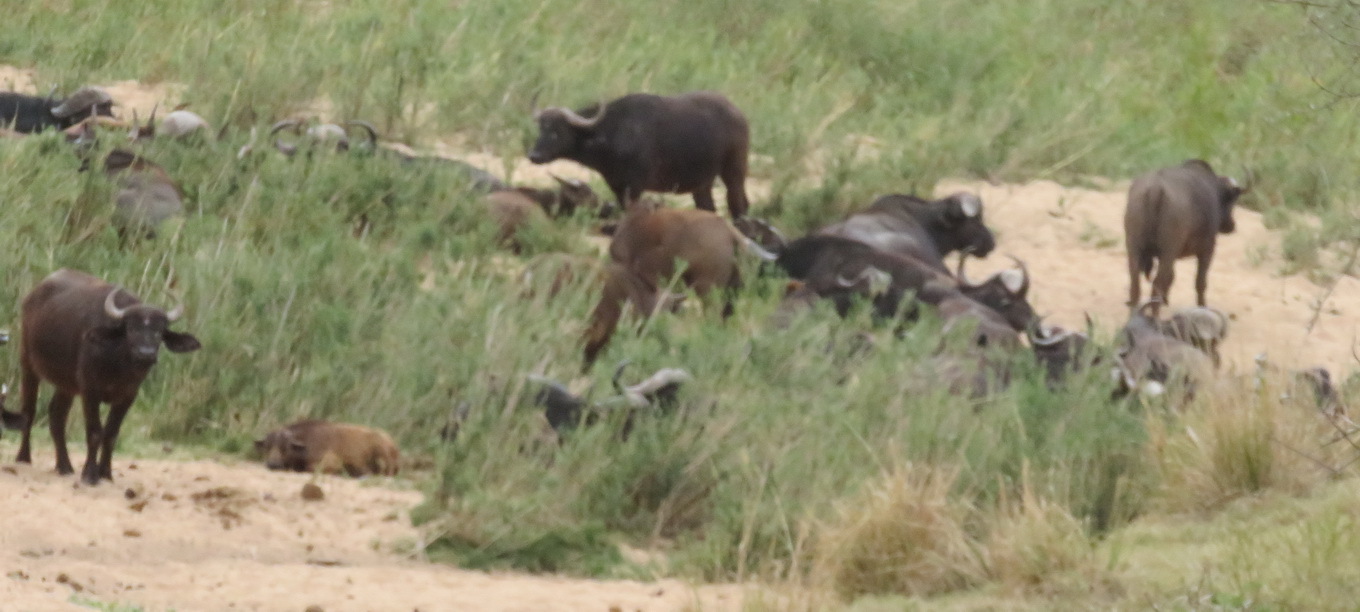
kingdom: Animalia
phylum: Chordata
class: Mammalia
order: Artiodactyla
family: Bovidae
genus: Syncerus
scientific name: Syncerus caffer
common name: African buffalo
